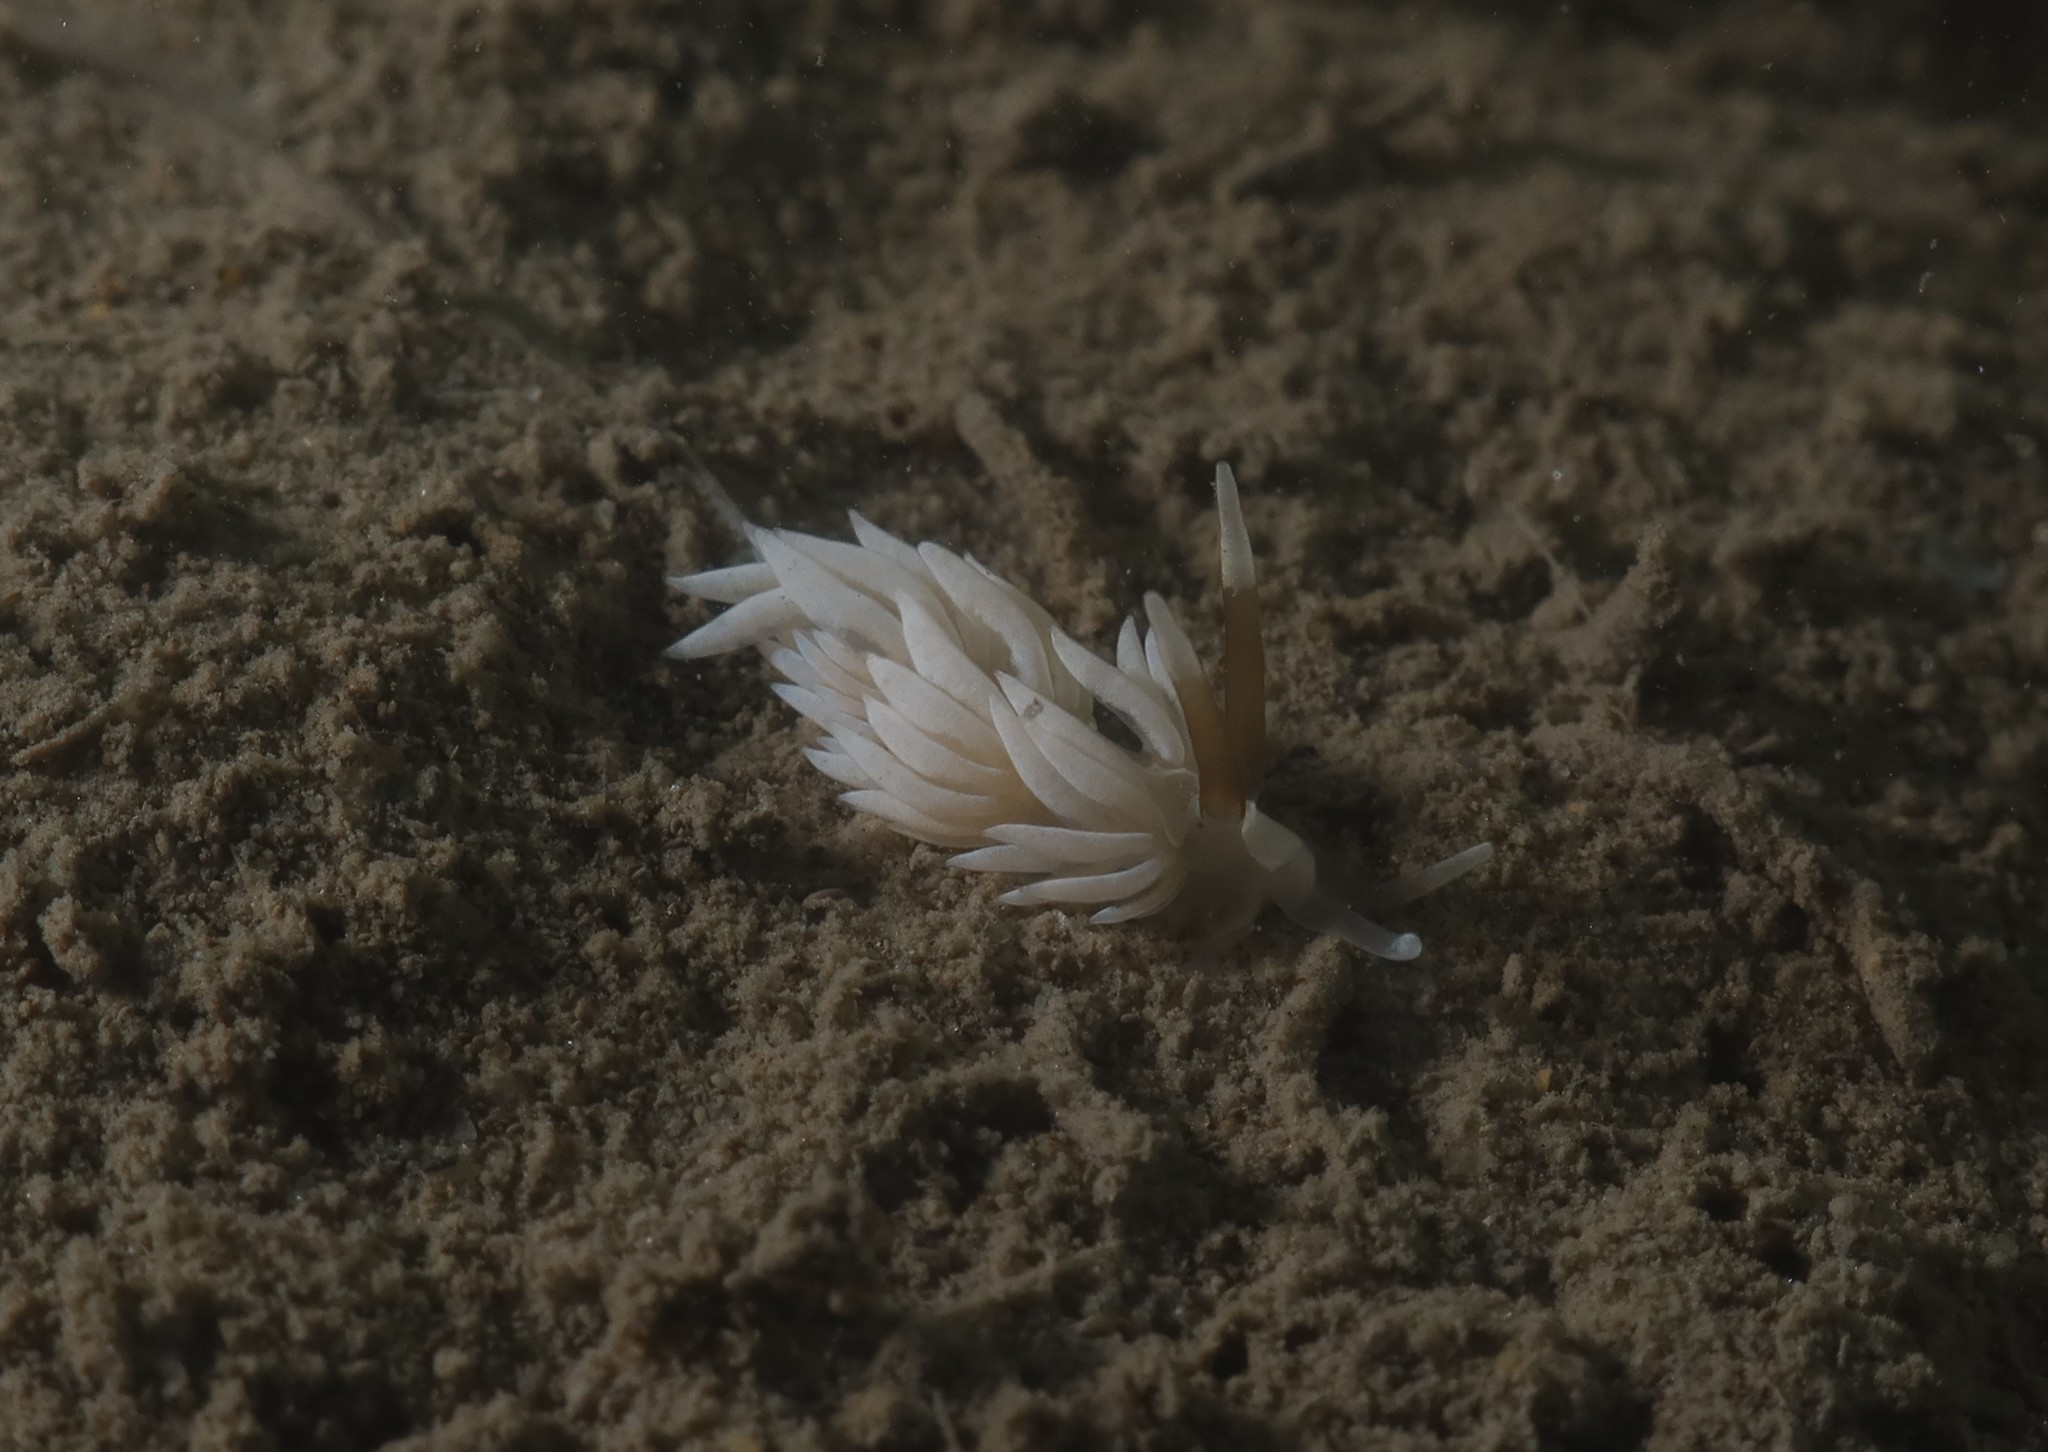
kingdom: Animalia
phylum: Mollusca
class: Gastropoda
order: Nudibranchia
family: Facelinidae
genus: Favorinus
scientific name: Favorinus branchialis
